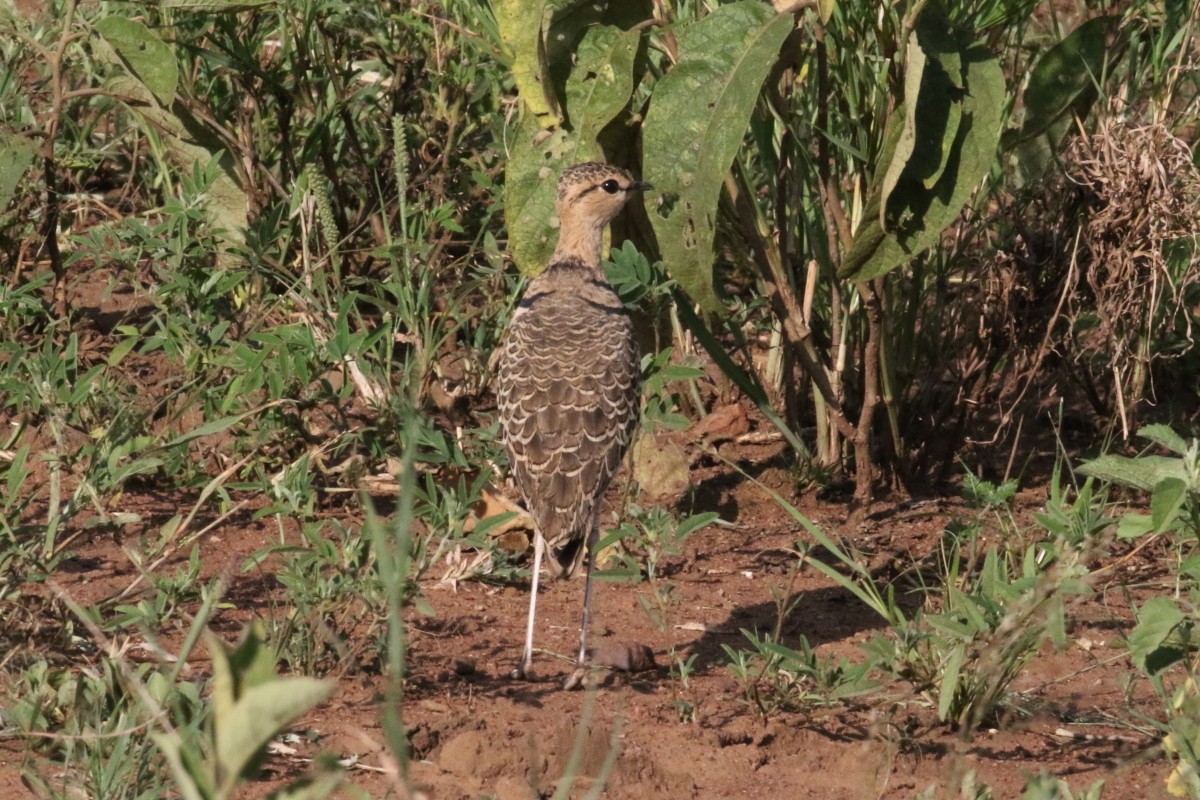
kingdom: Animalia
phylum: Chordata
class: Aves
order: Charadriiformes
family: Glareolidae
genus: Rhinoptilus
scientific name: Rhinoptilus africanus
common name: Double-banded courser
